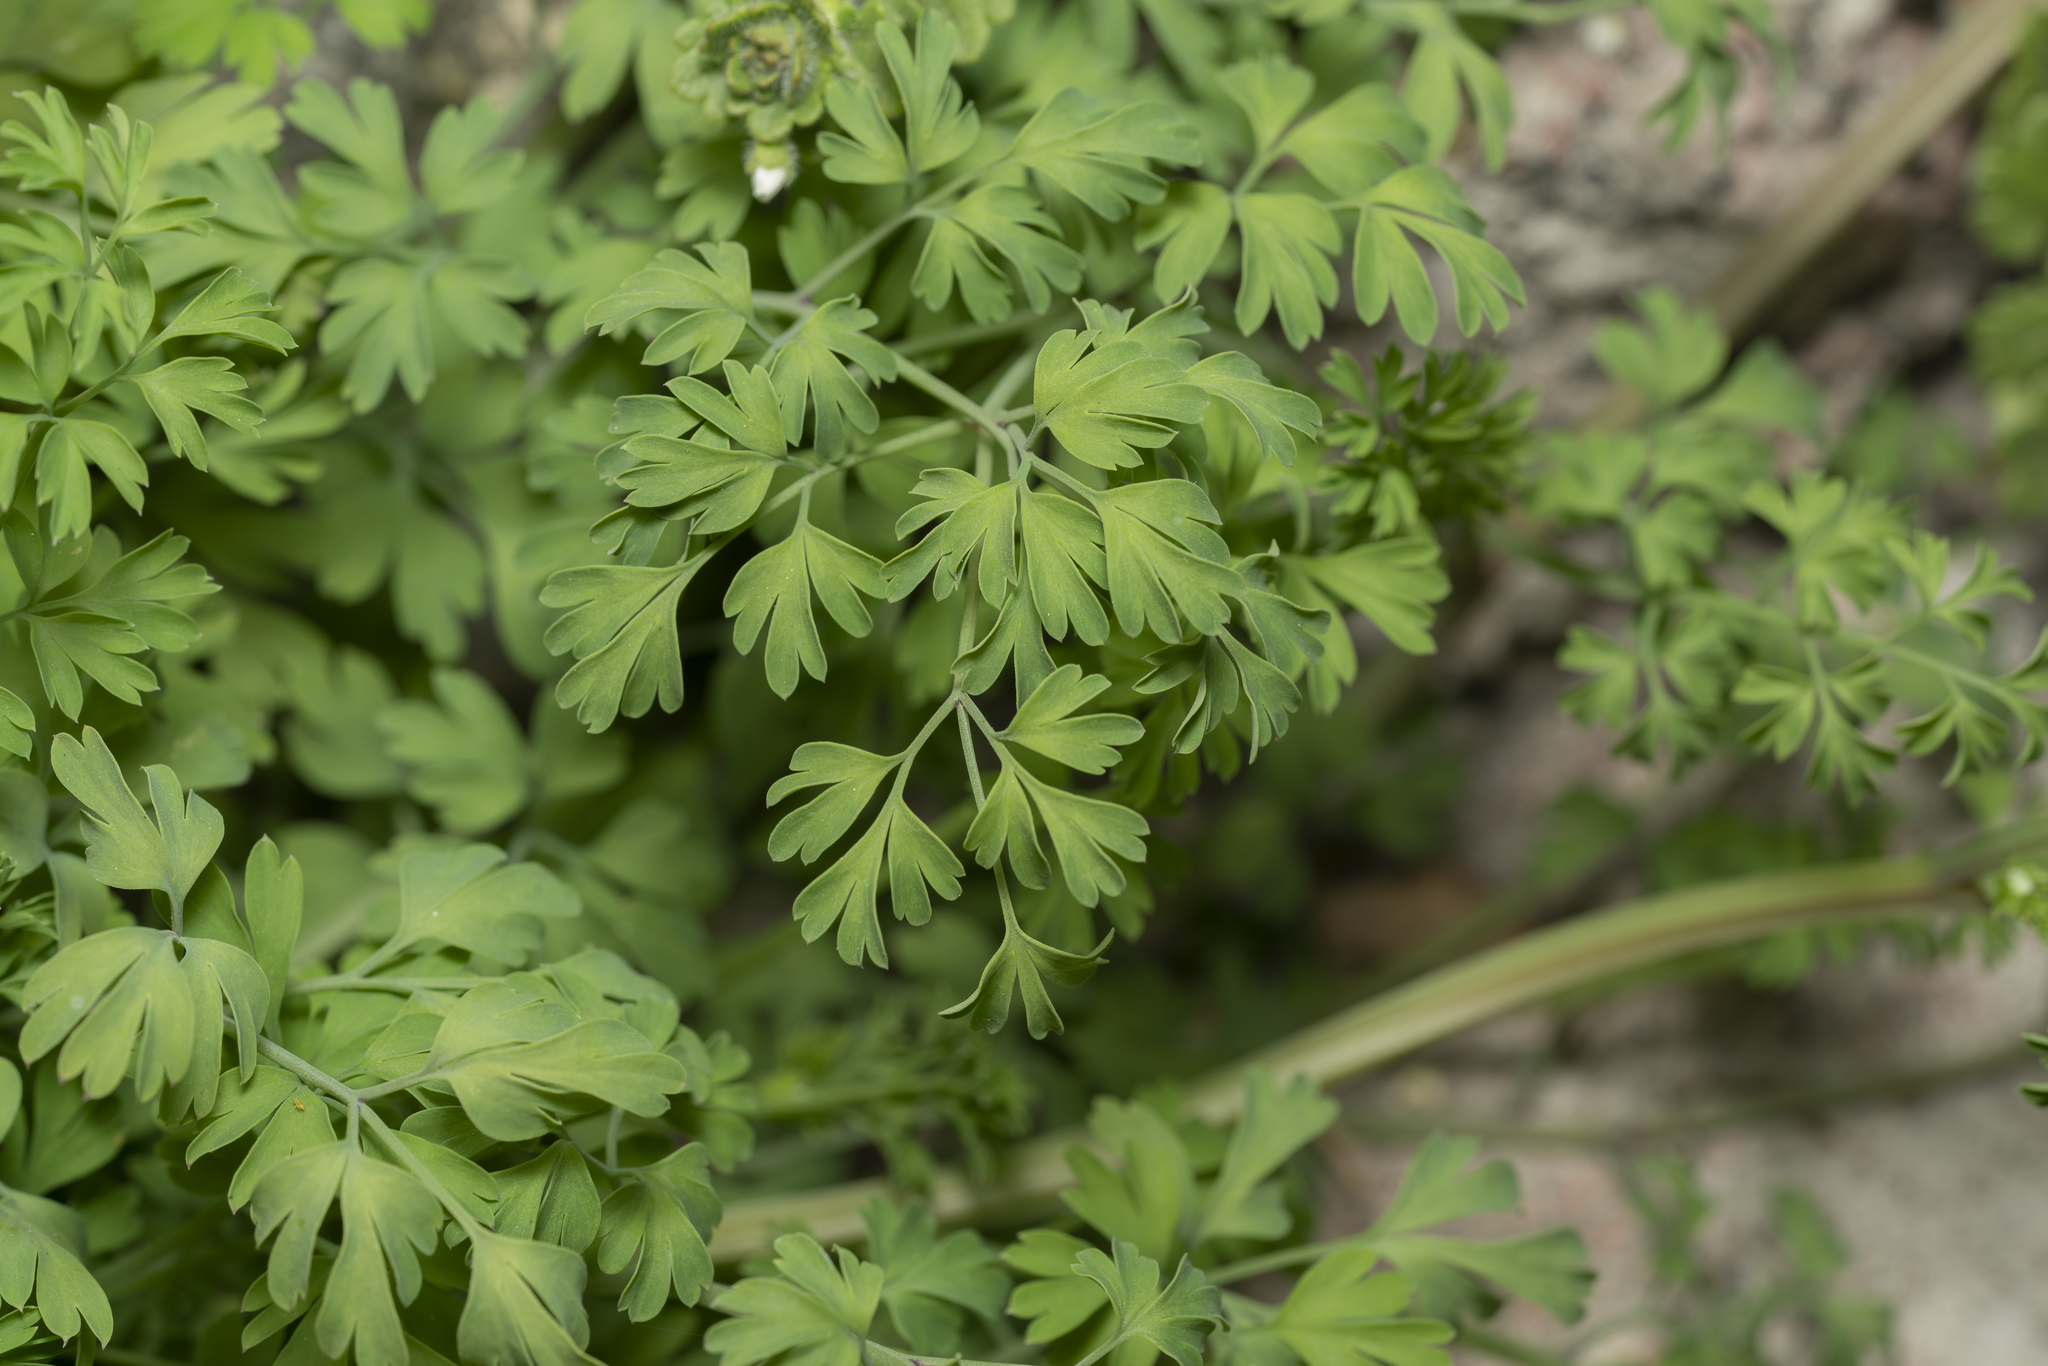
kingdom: Plantae
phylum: Tracheophyta
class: Magnoliopsida
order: Ranunculales
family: Papaveraceae
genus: Fumaria
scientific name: Fumaria capreolata
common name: White ramping-fumitory
